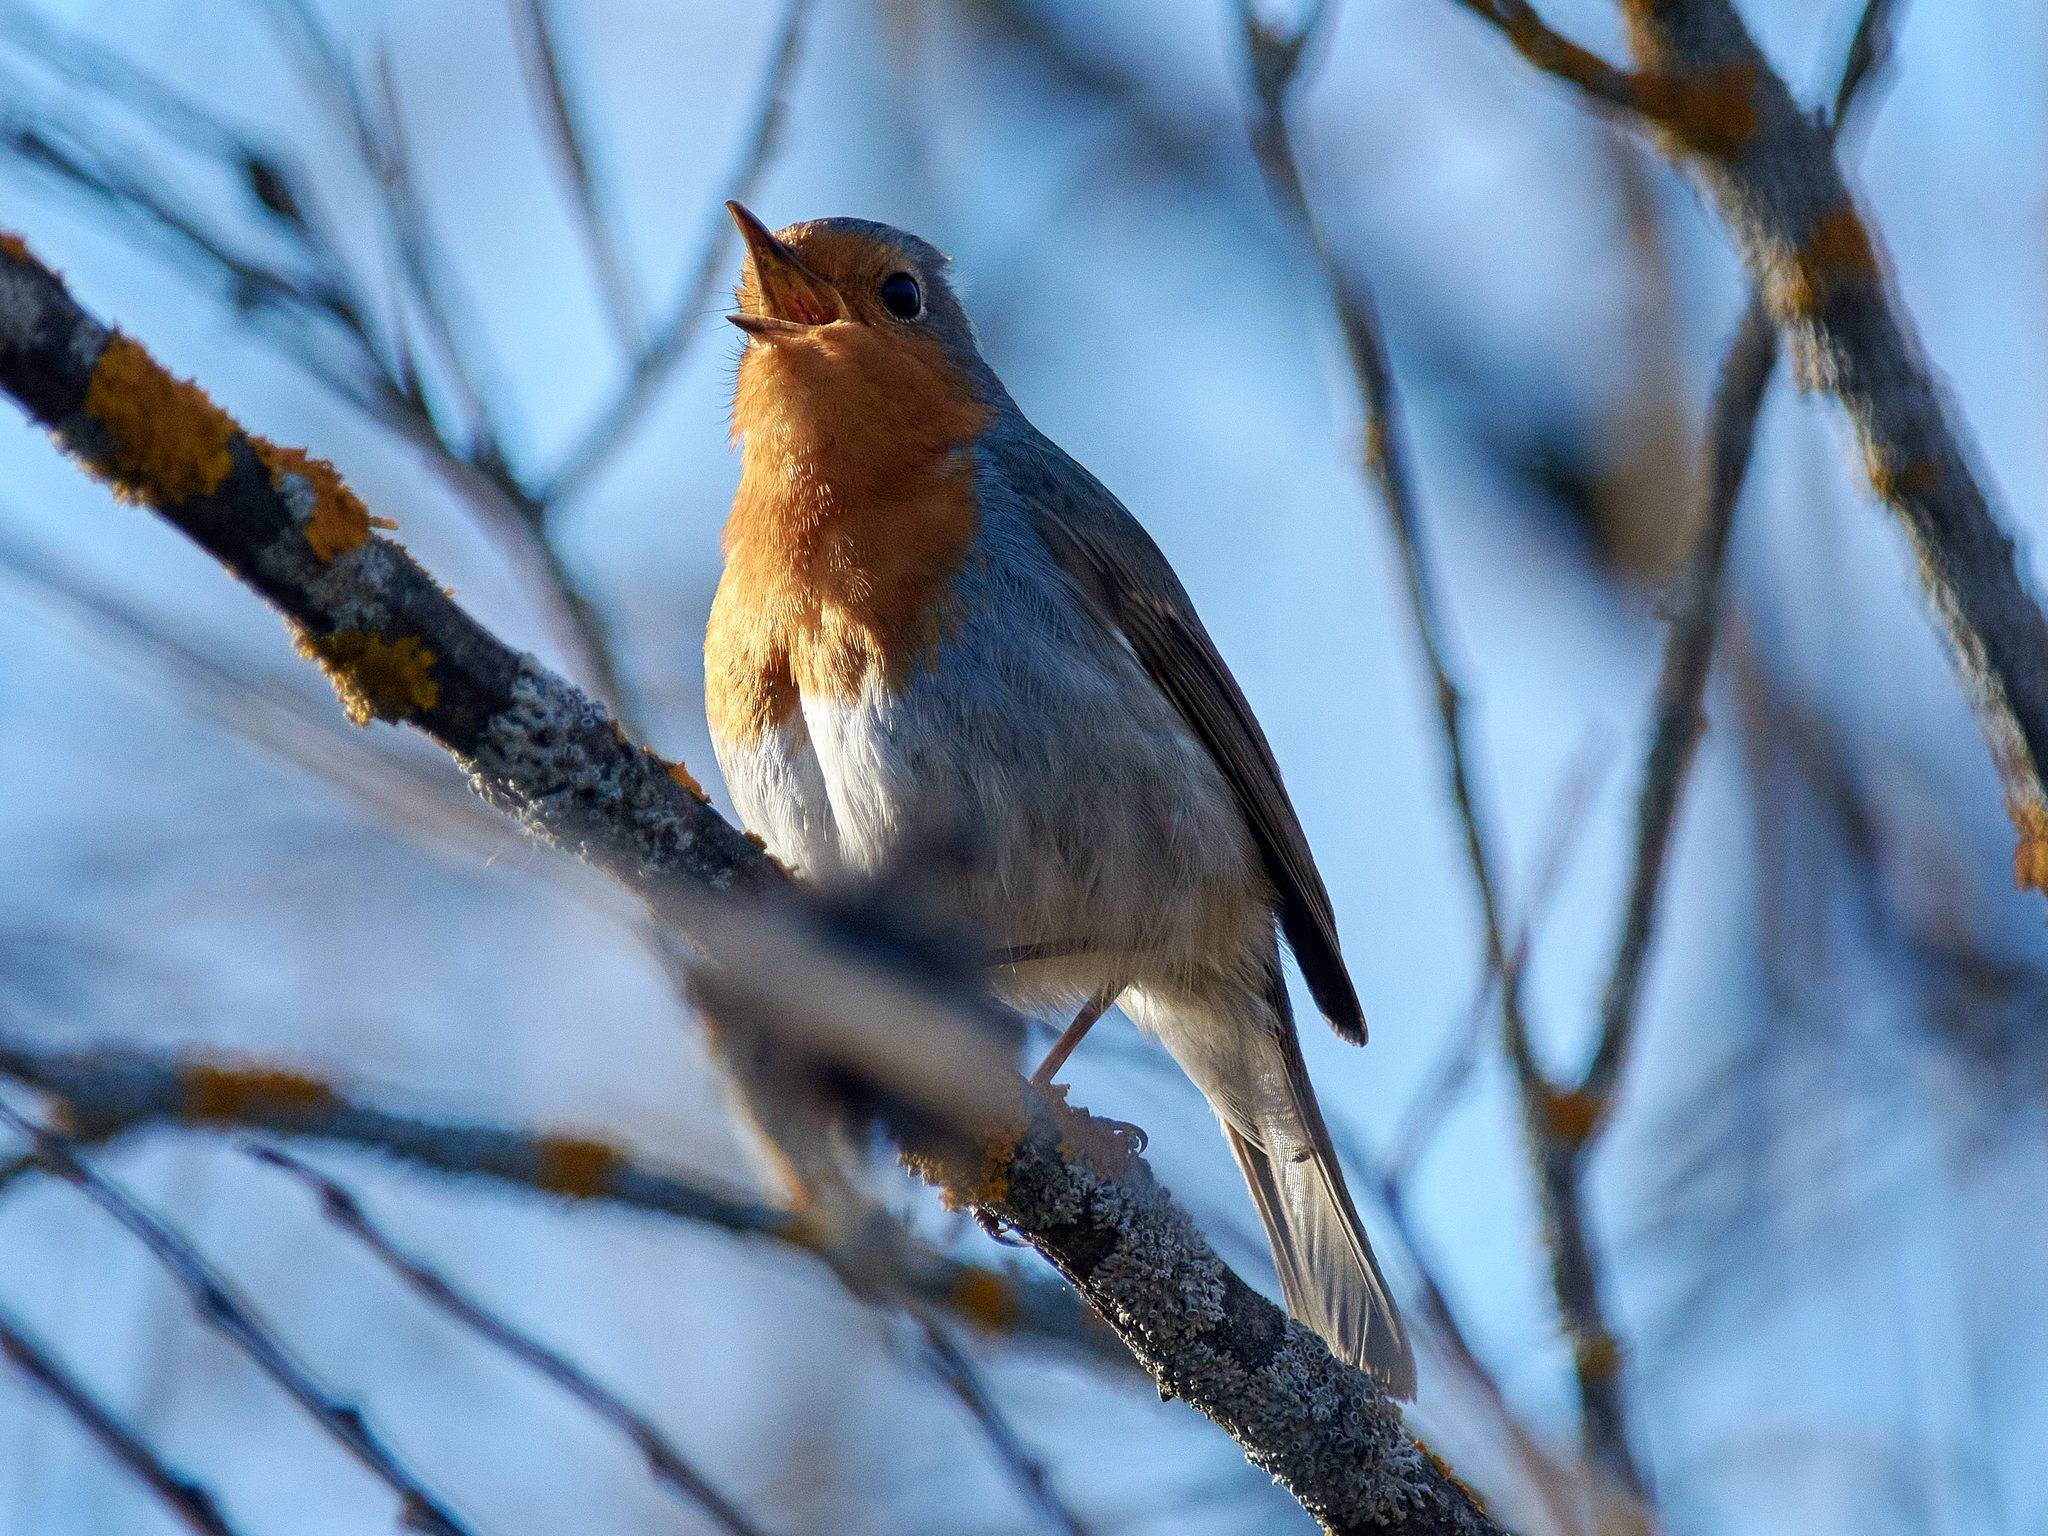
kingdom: Animalia
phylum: Chordata
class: Aves
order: Passeriformes
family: Muscicapidae
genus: Erithacus
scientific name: Erithacus rubecula
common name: European robin
